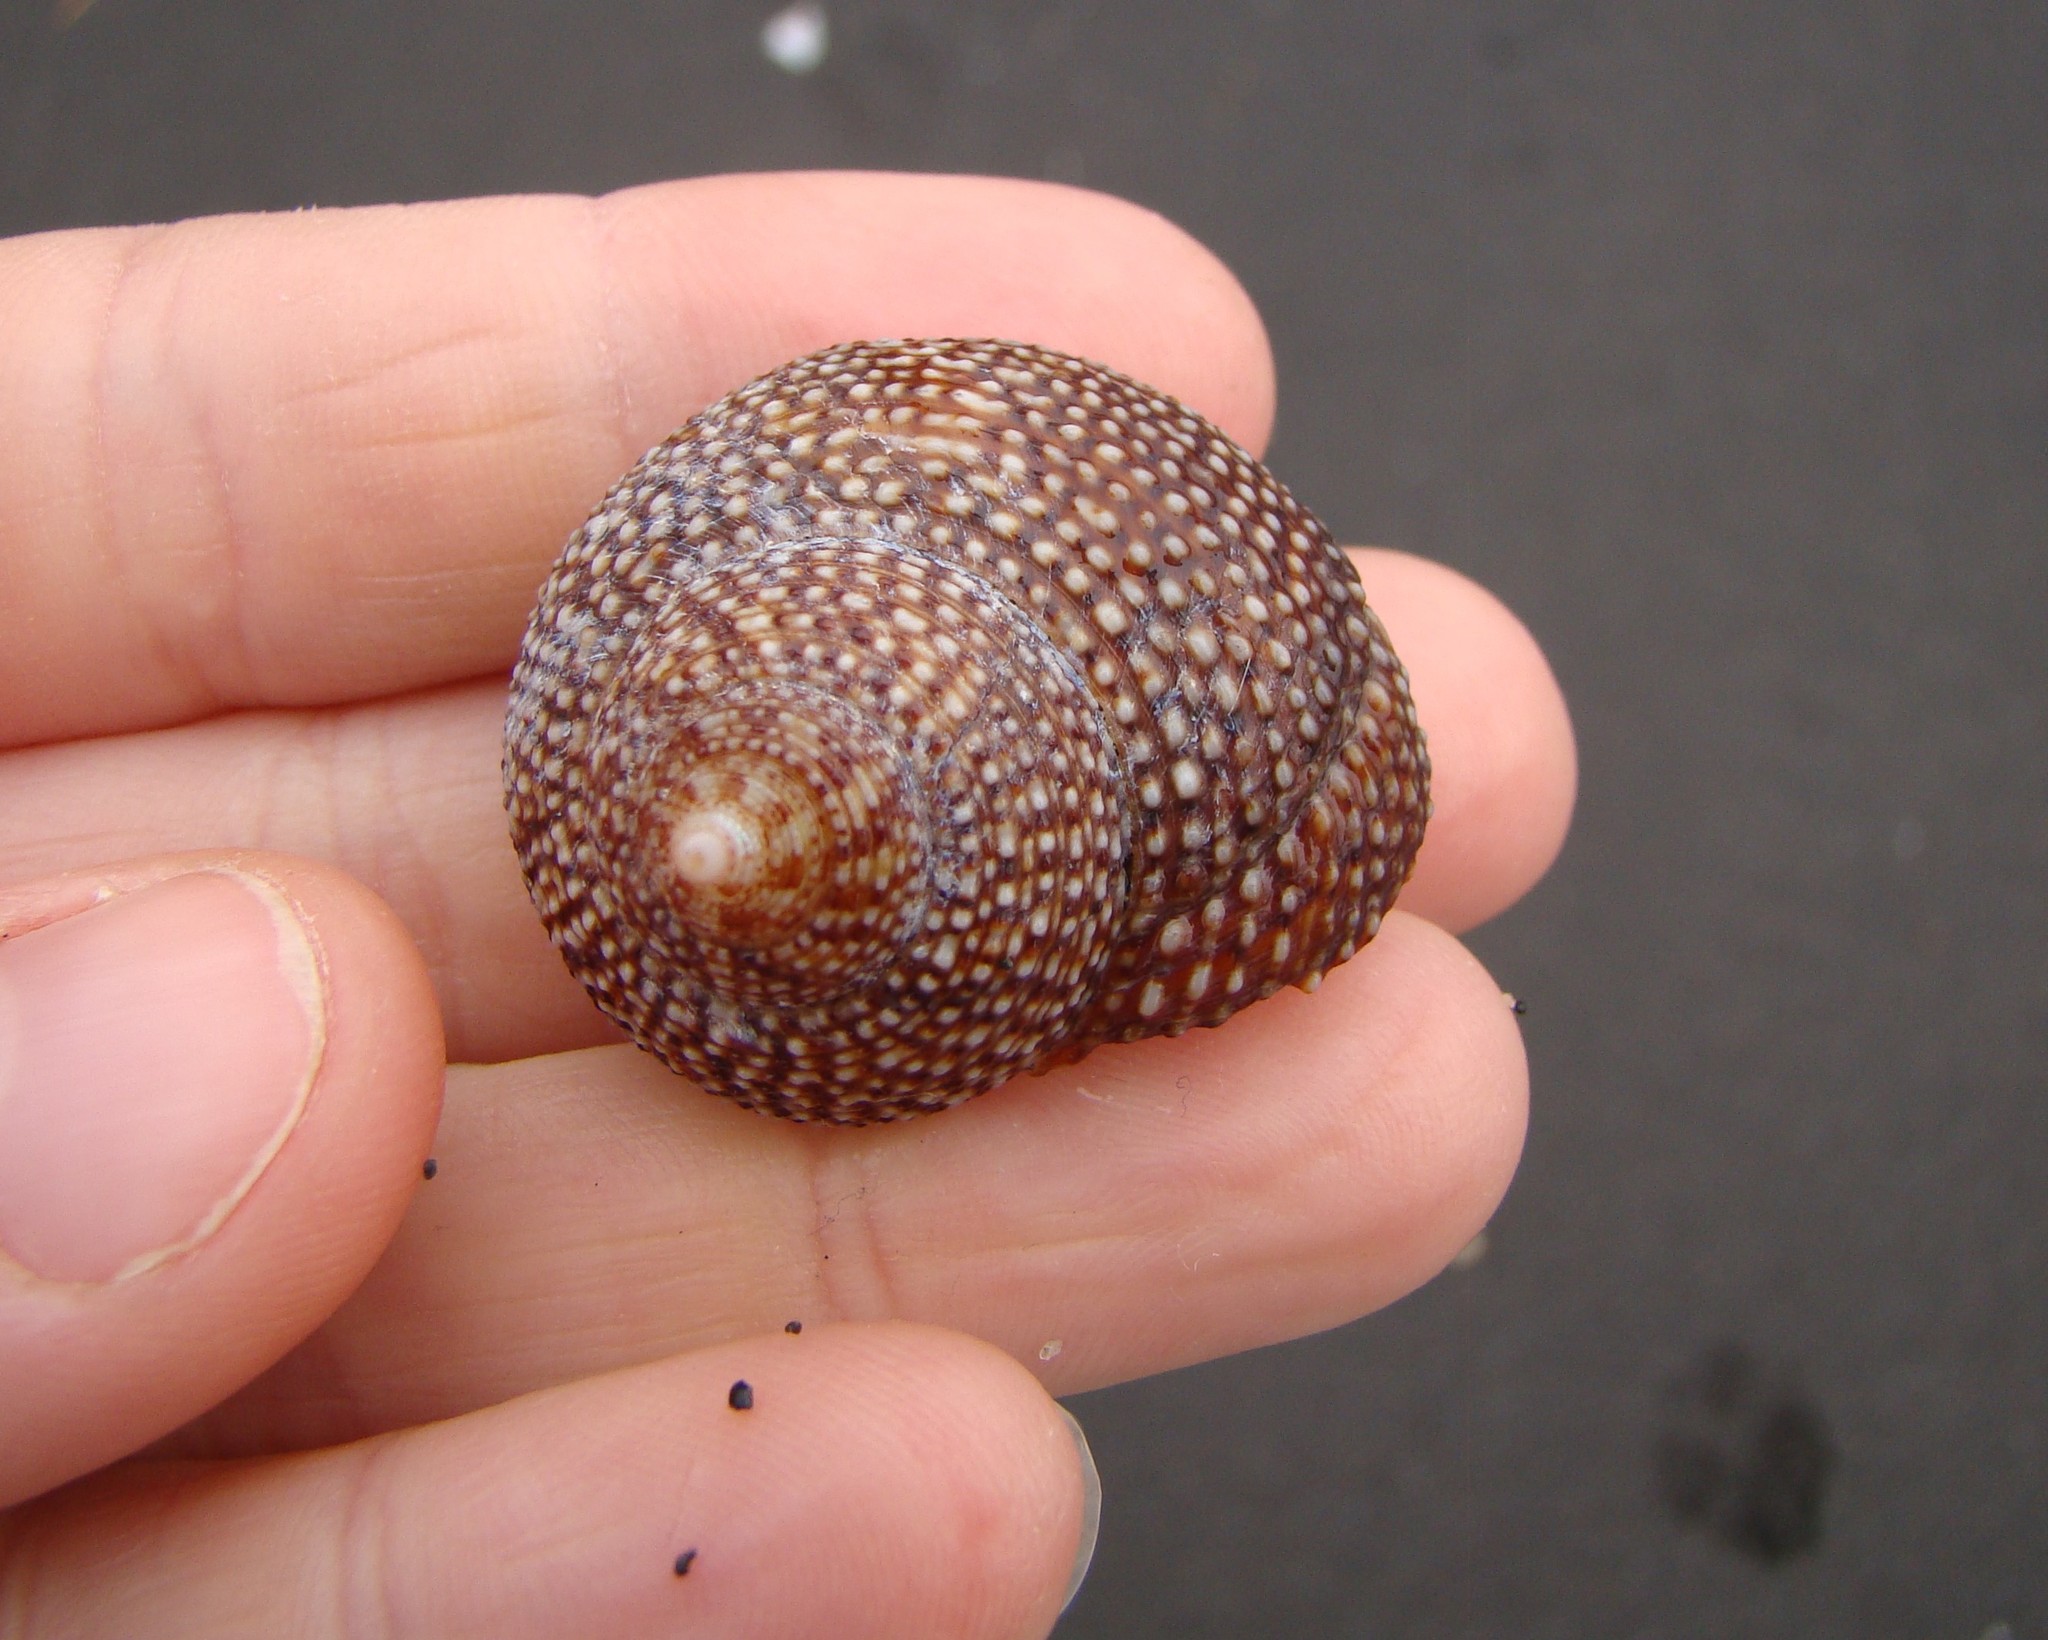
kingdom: Animalia
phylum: Mollusca
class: Gastropoda
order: Trochida
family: Calliostomatidae
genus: Maurea
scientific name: Maurea punctulata
